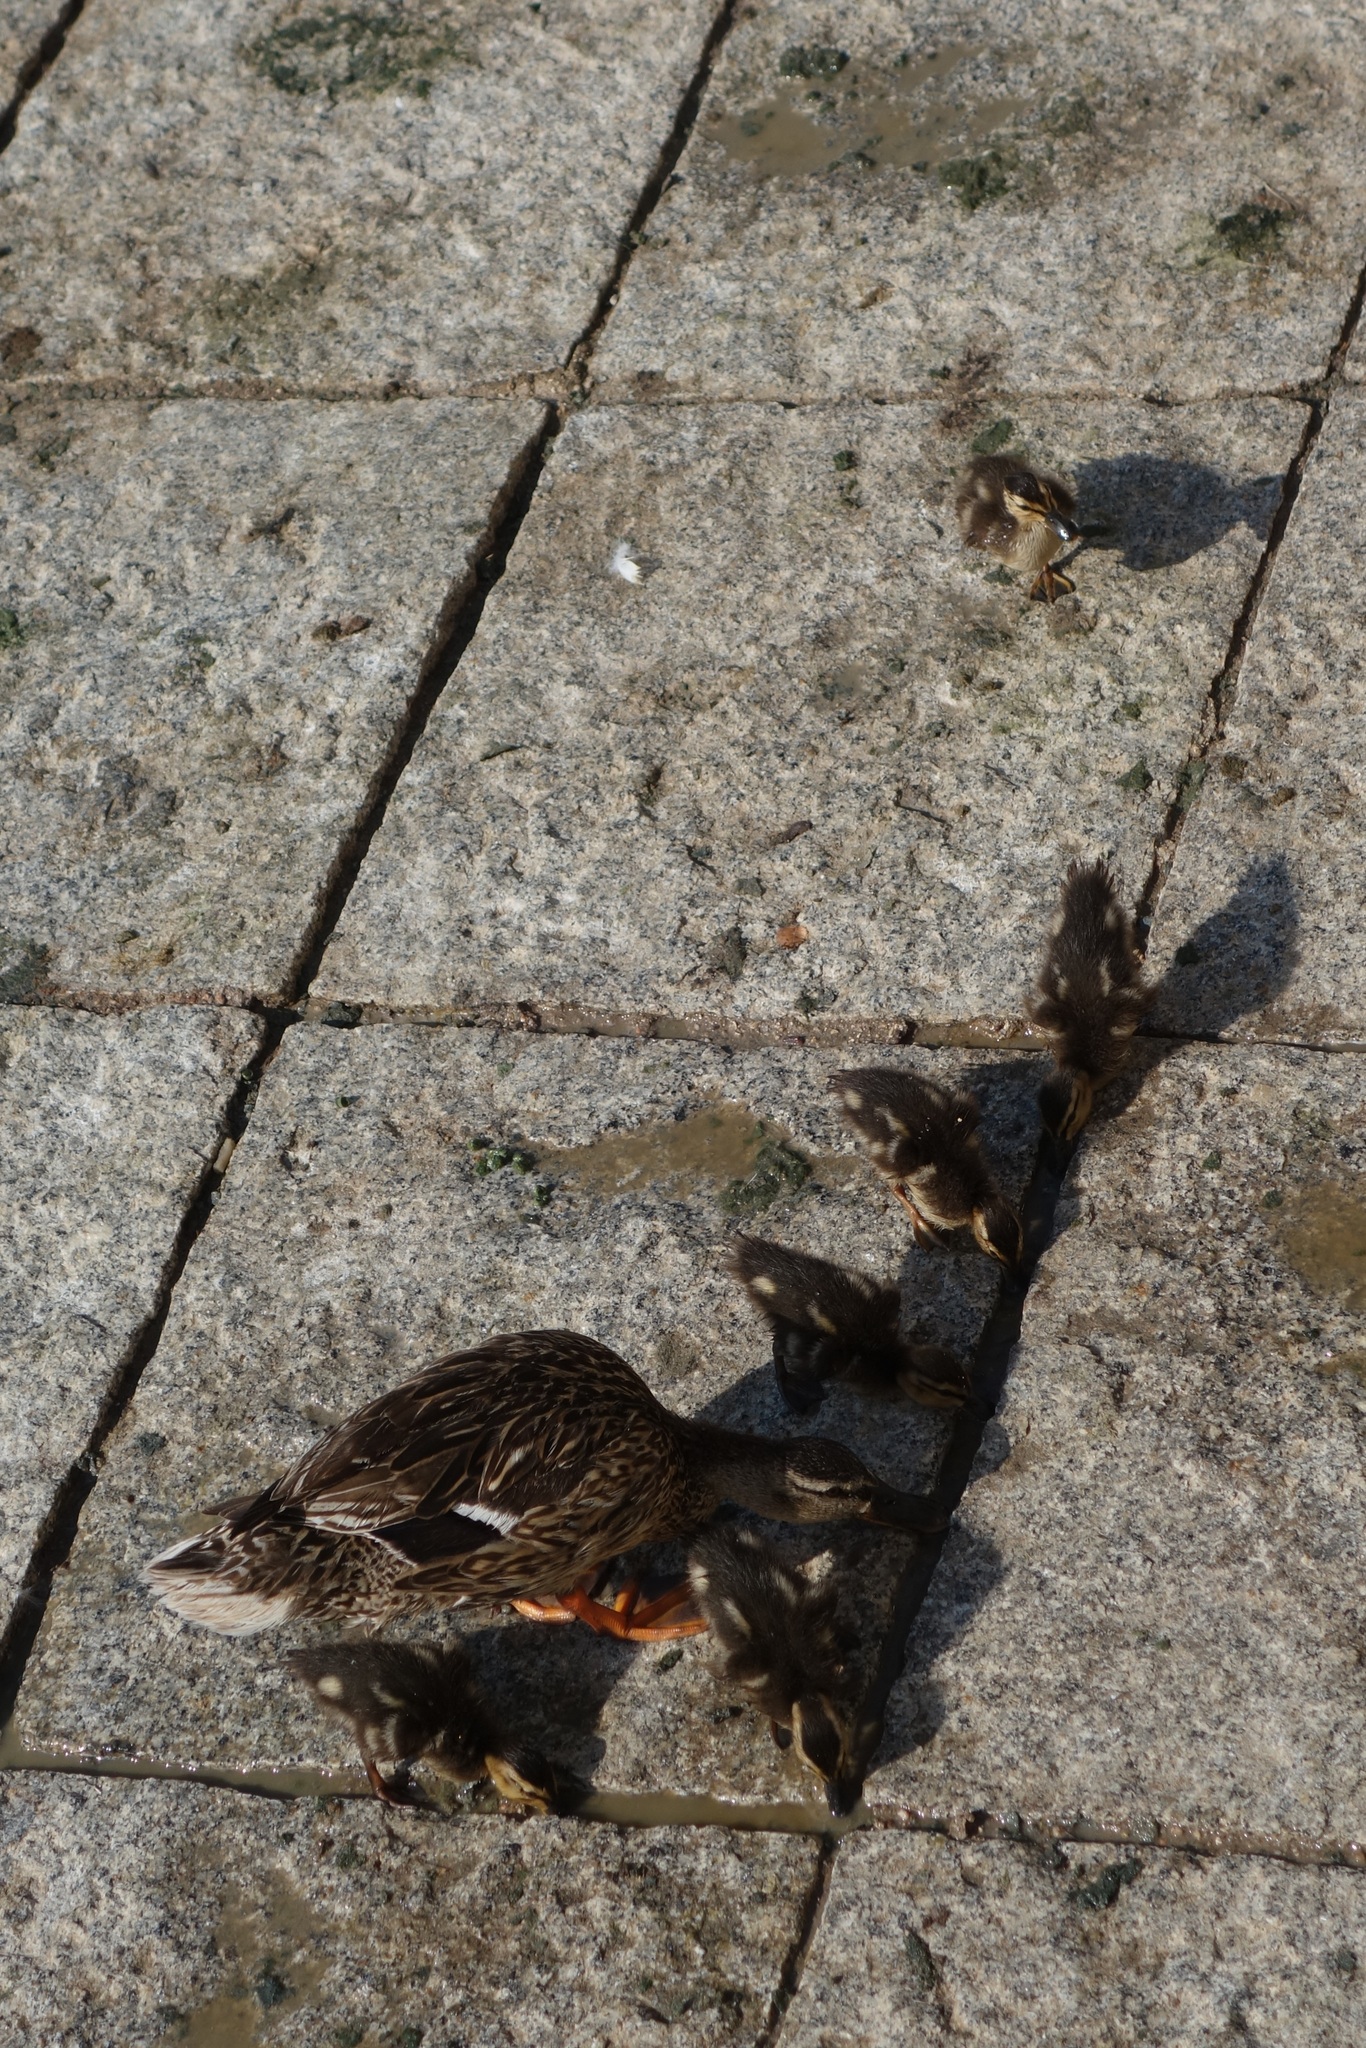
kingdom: Animalia
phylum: Chordata
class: Aves
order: Anseriformes
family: Anatidae
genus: Anas
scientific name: Anas platyrhynchos
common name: Mallard
